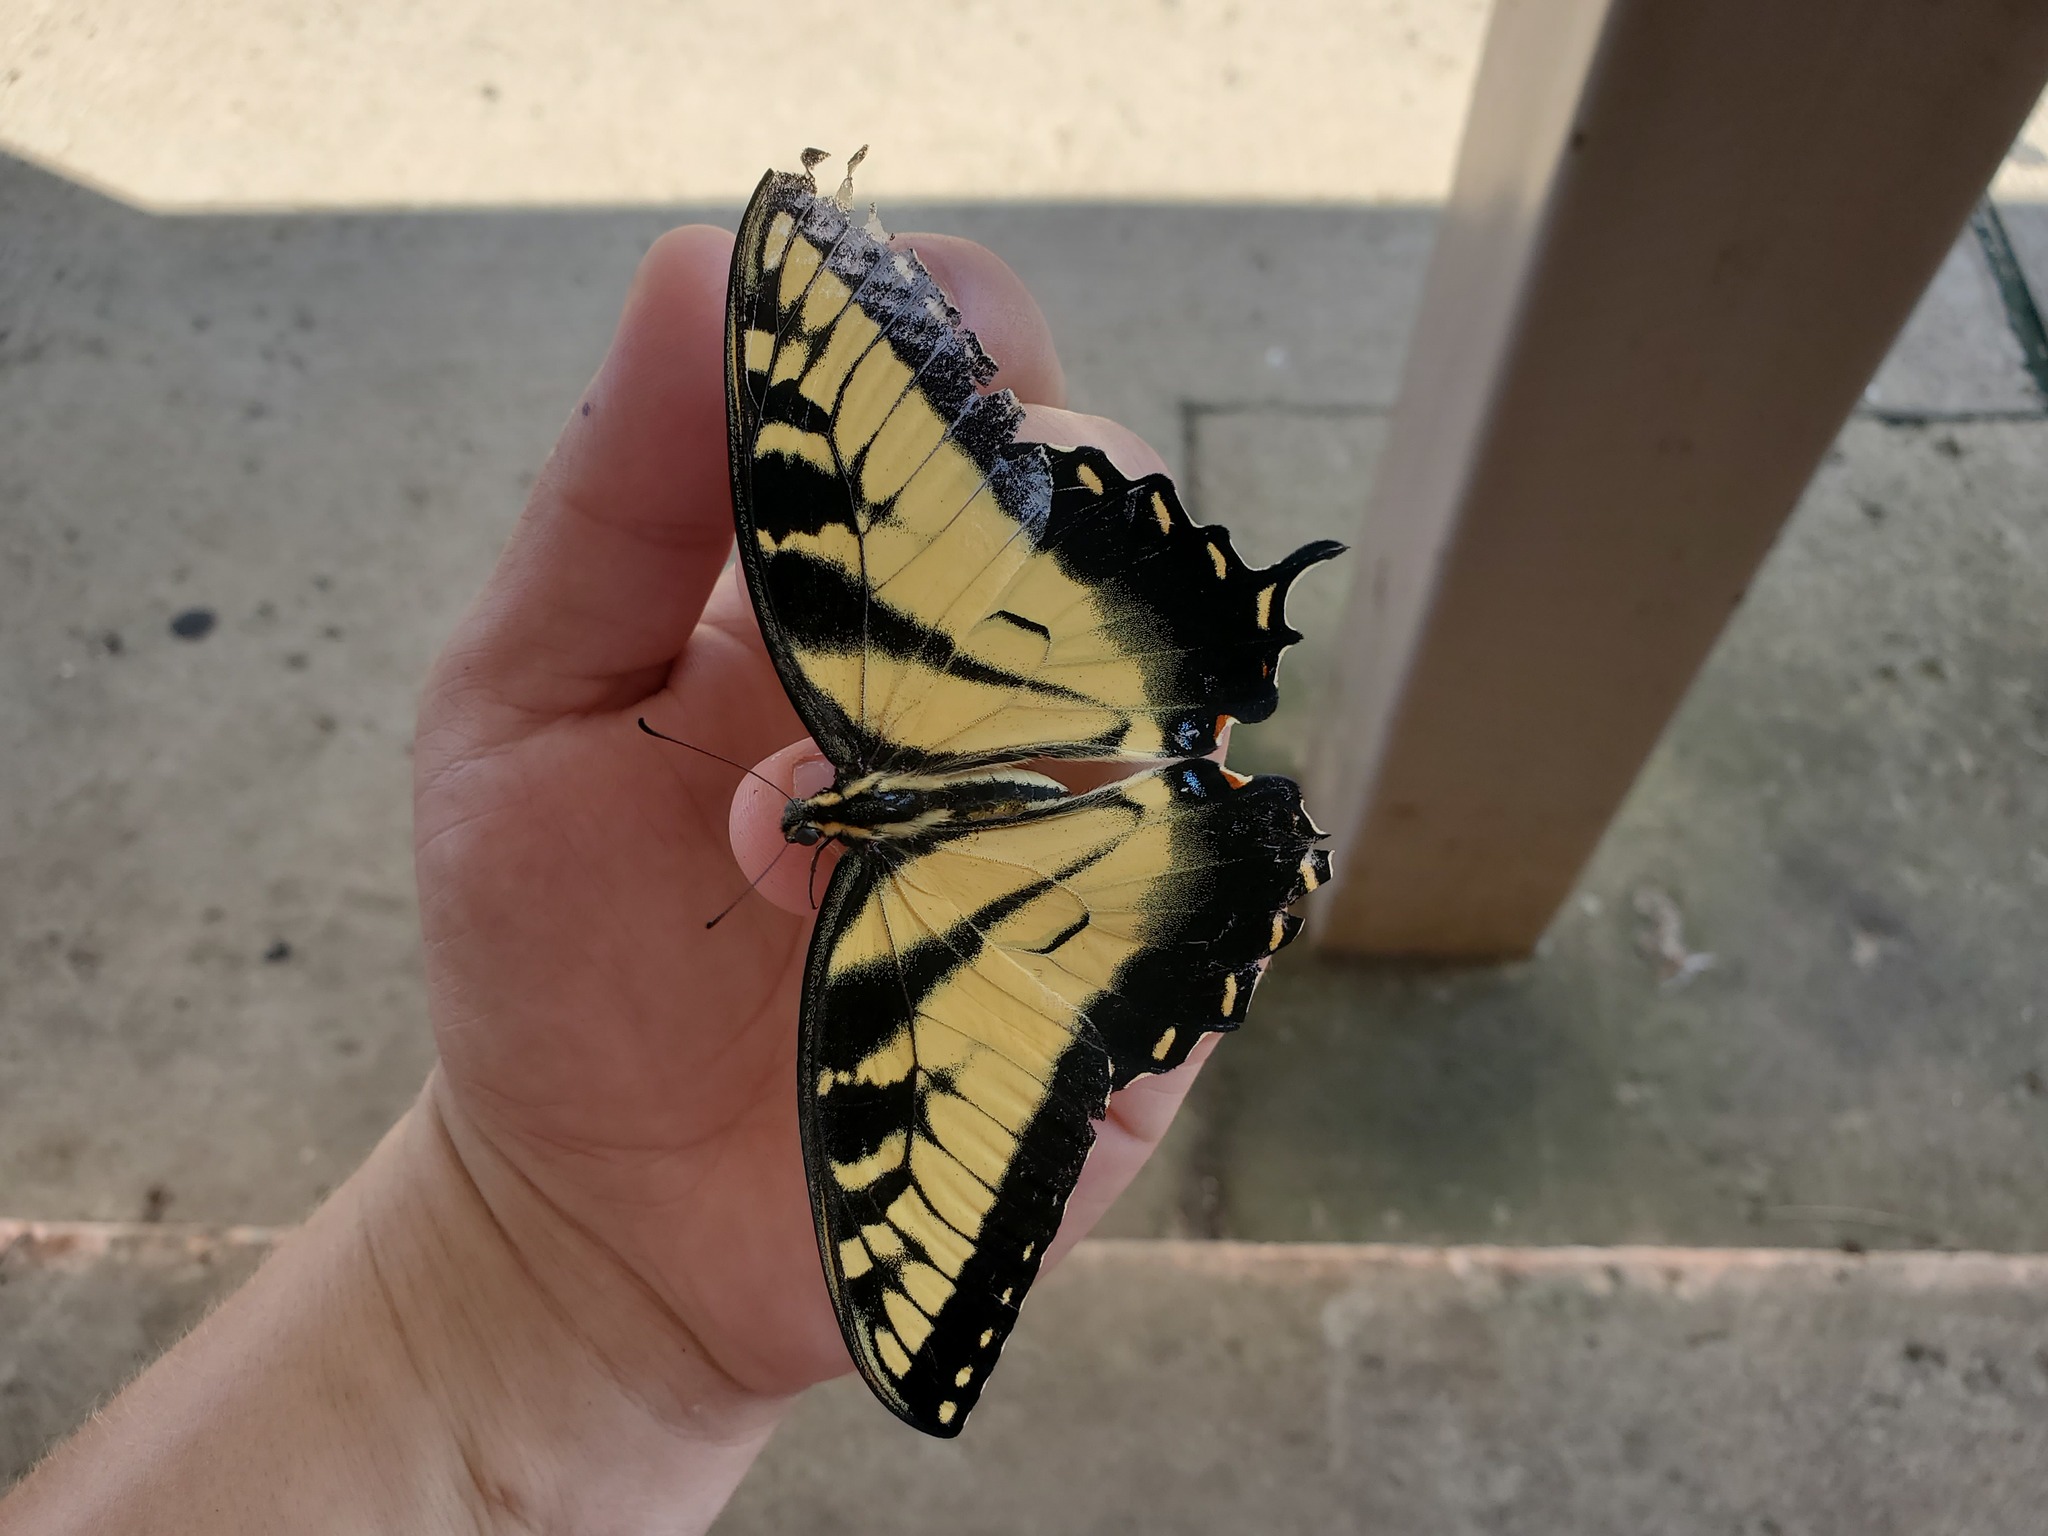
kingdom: Animalia
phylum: Arthropoda
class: Insecta
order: Lepidoptera
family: Papilionidae
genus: Papilio
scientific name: Papilio glaucus
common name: Tiger swallowtail
